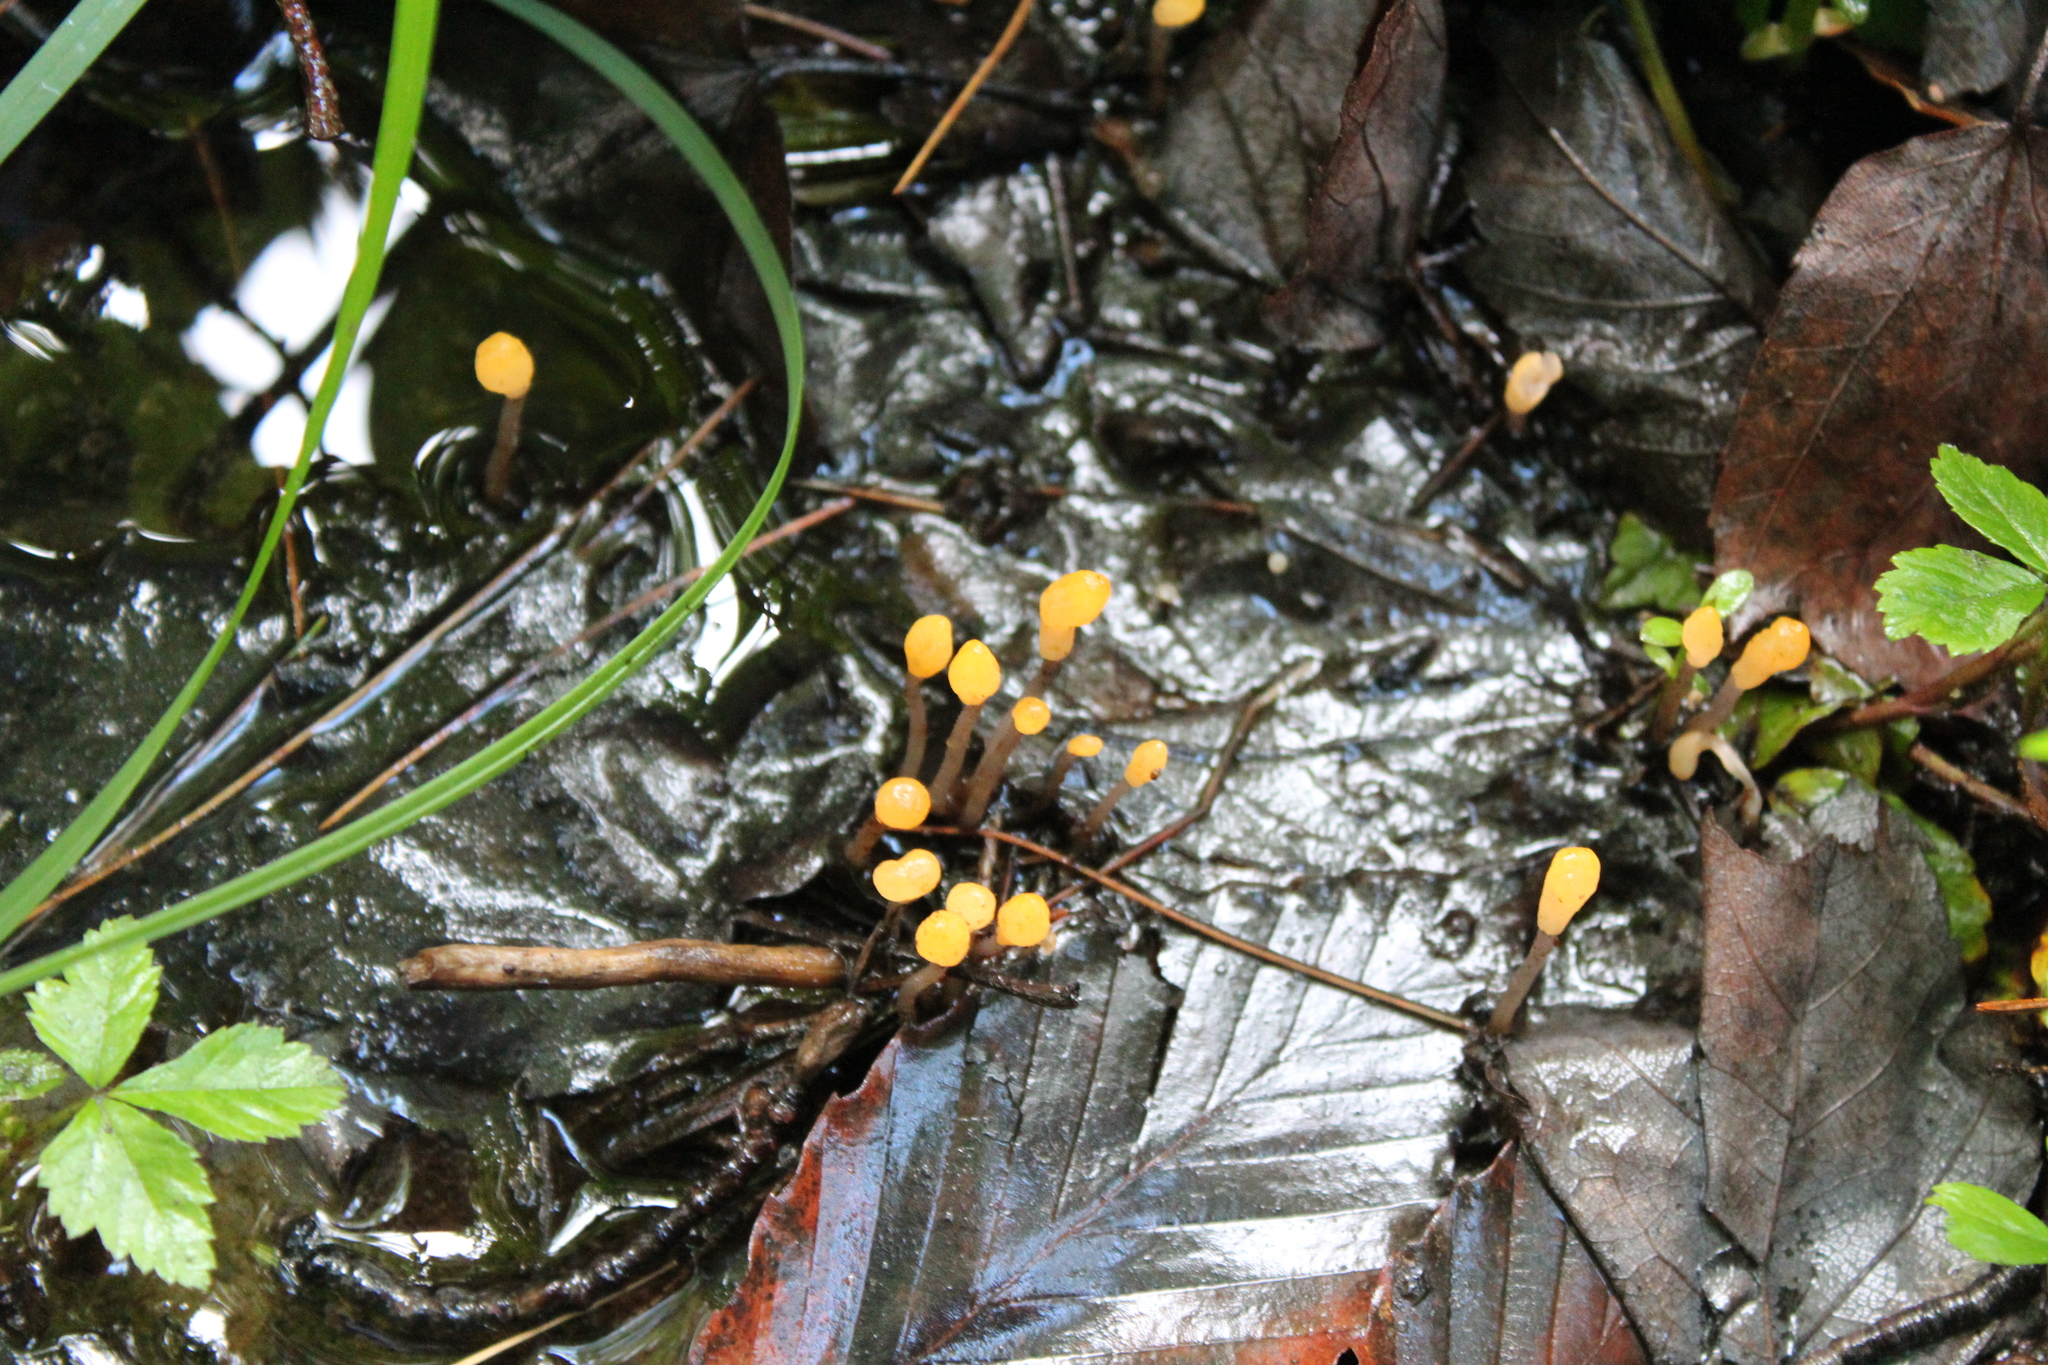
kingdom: Fungi
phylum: Ascomycota
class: Leotiomycetes
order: Helotiales
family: Sclerotiniaceae
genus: Mitrula
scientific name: Mitrula elegans
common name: Swamp beacon
